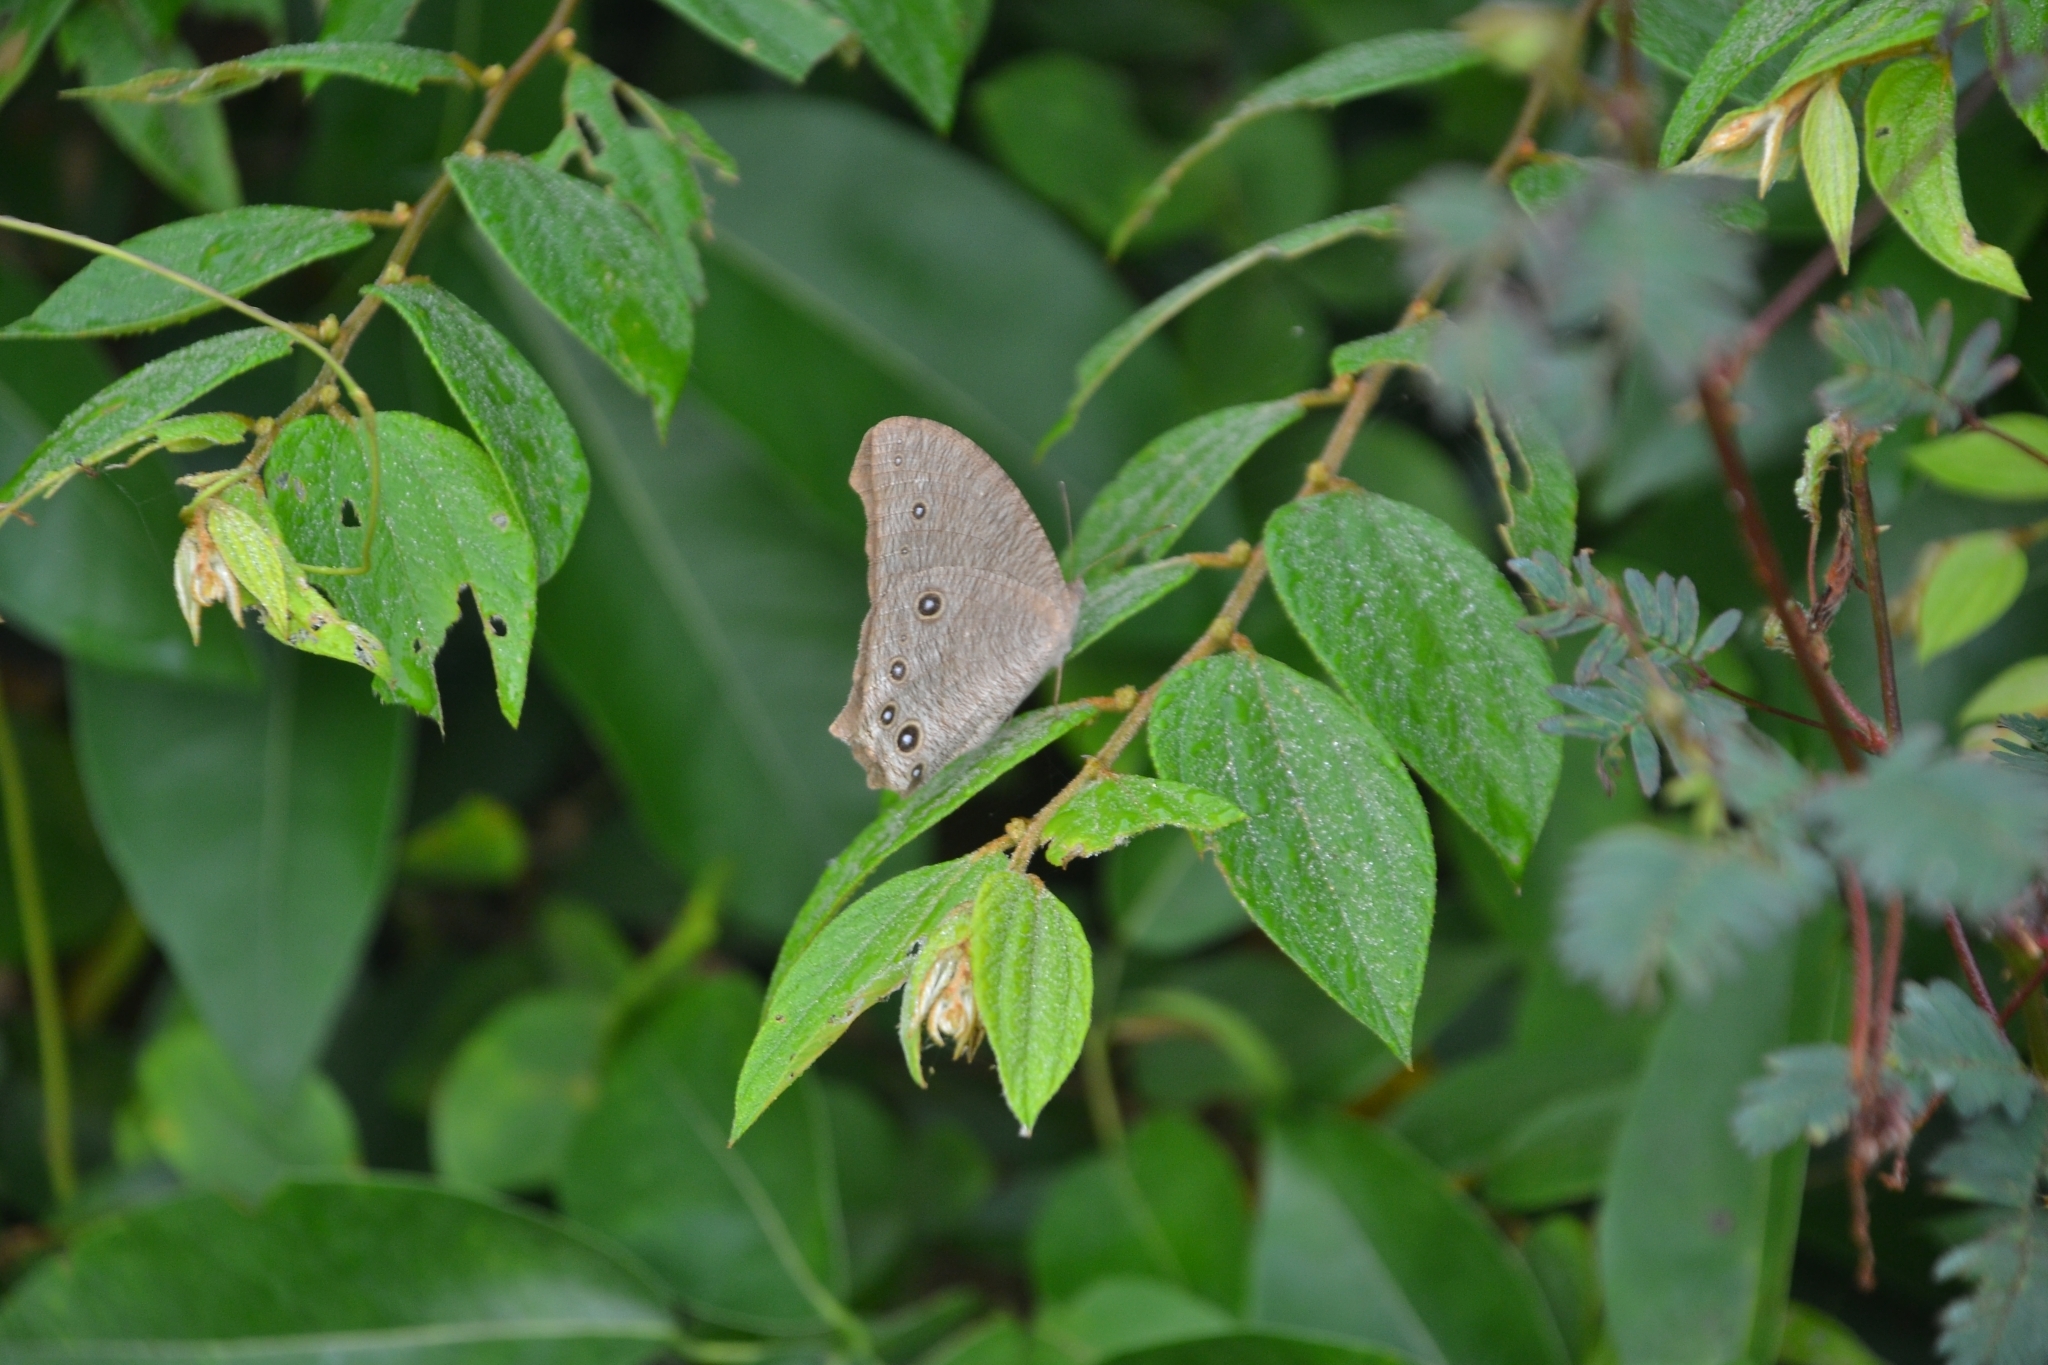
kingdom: Animalia
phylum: Arthropoda
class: Insecta
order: Lepidoptera
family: Nymphalidae
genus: Melanitis
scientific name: Melanitis leda
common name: Twilight brown
